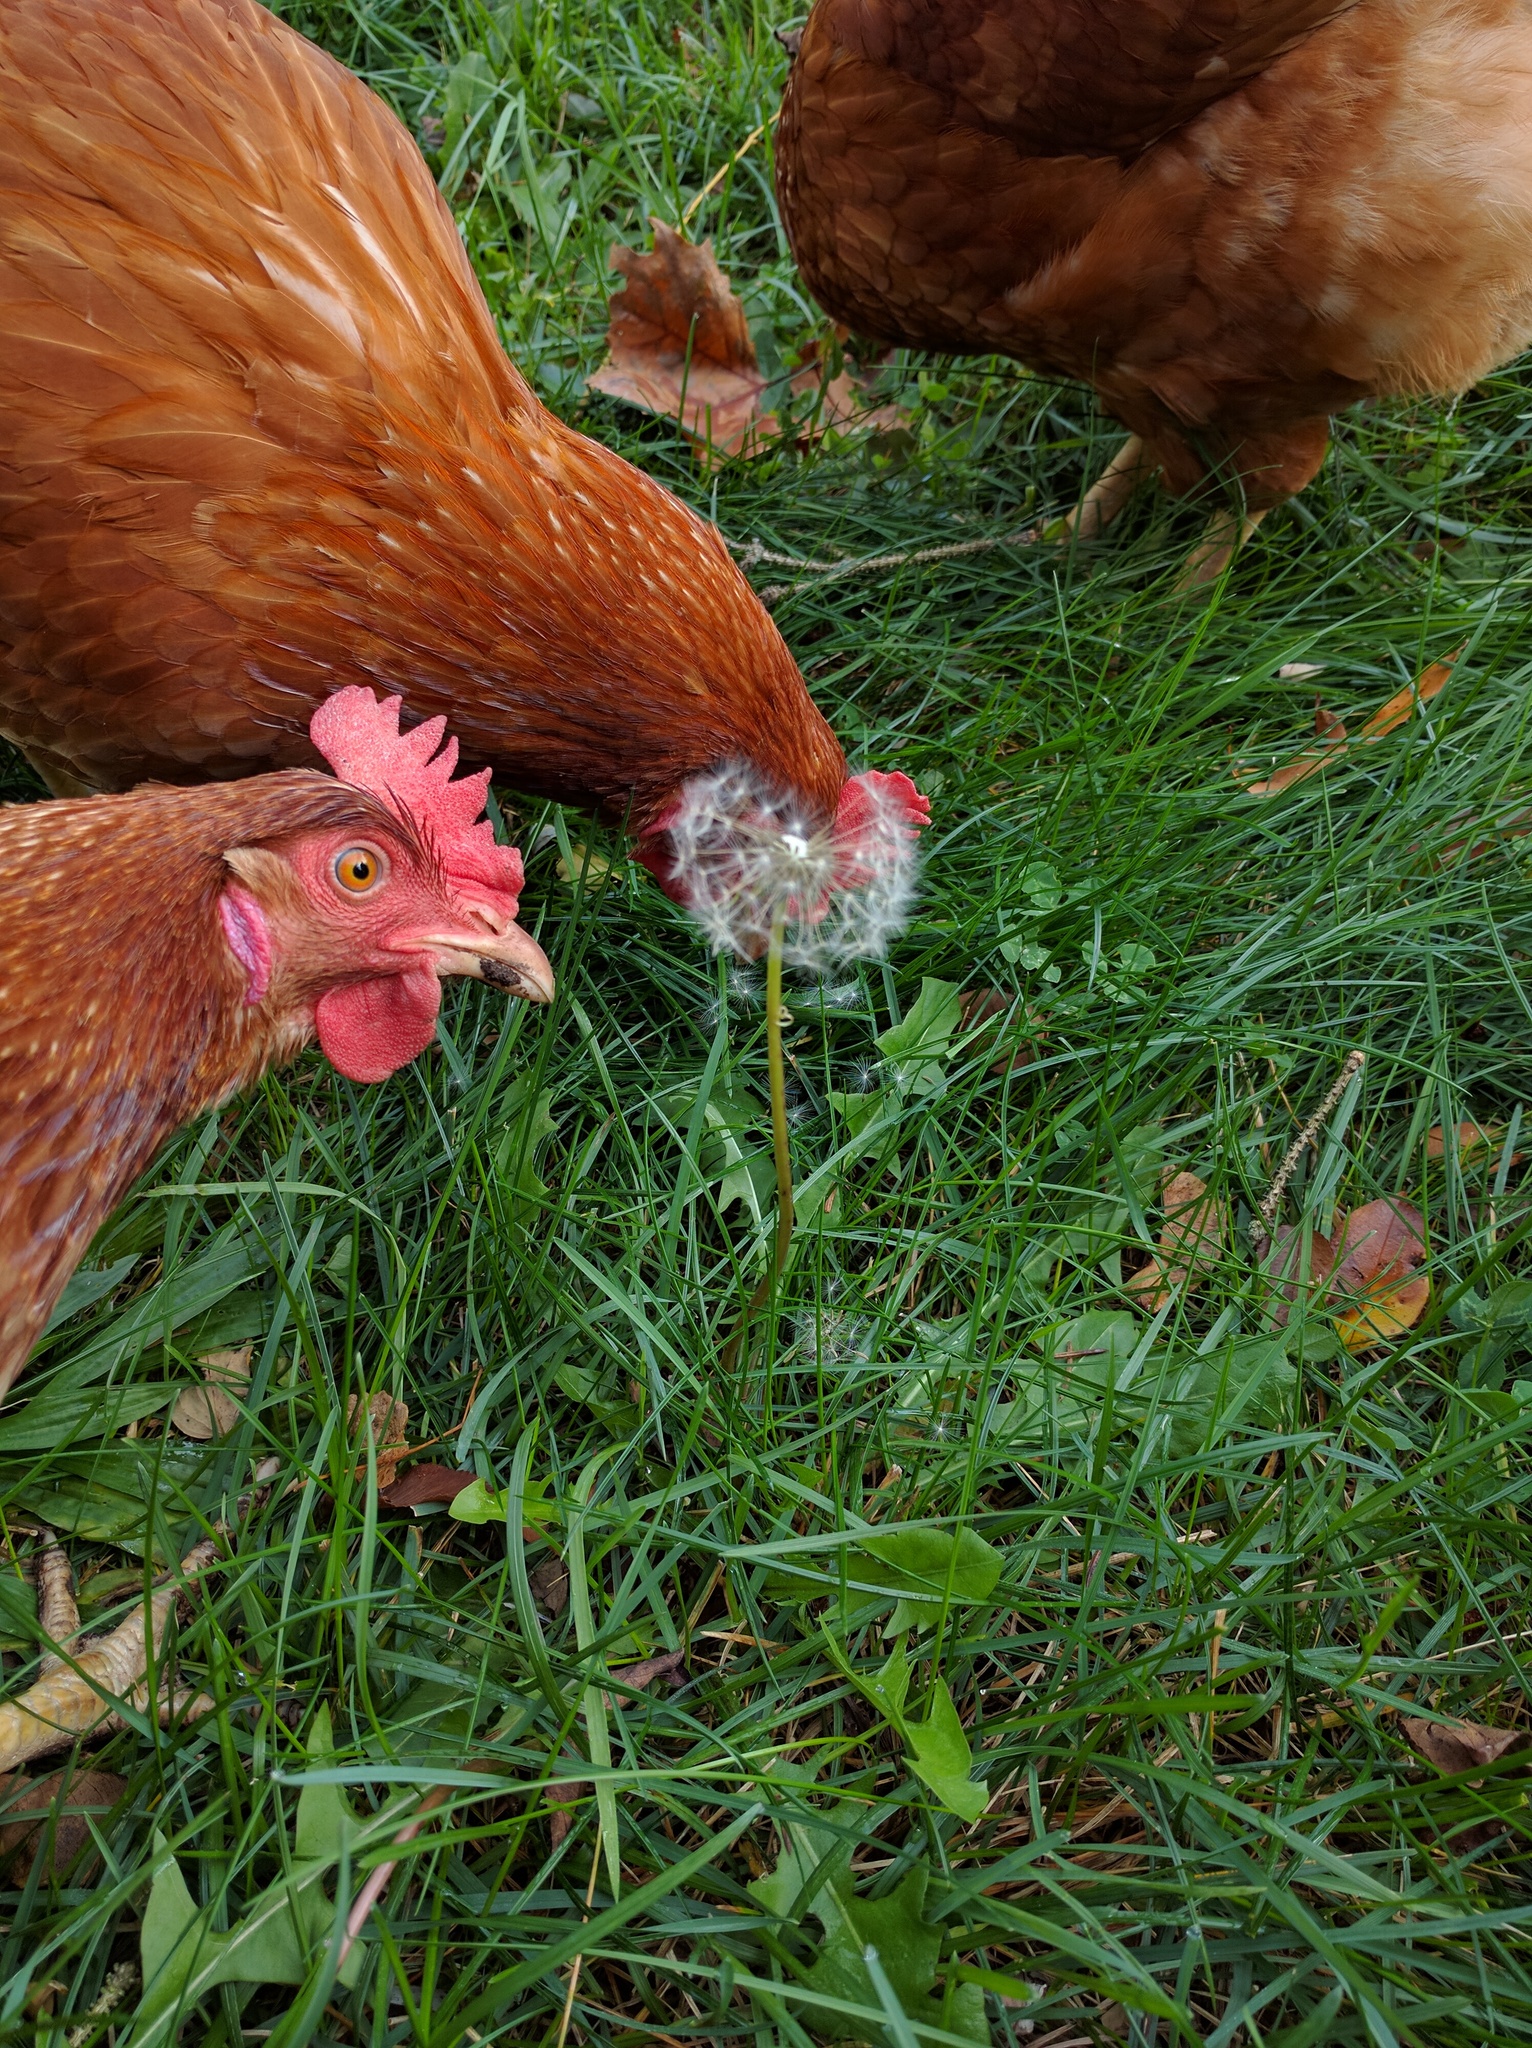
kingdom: Plantae
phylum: Tracheophyta
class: Magnoliopsida
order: Asterales
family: Asteraceae
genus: Taraxacum
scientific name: Taraxacum officinale
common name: Common dandelion
